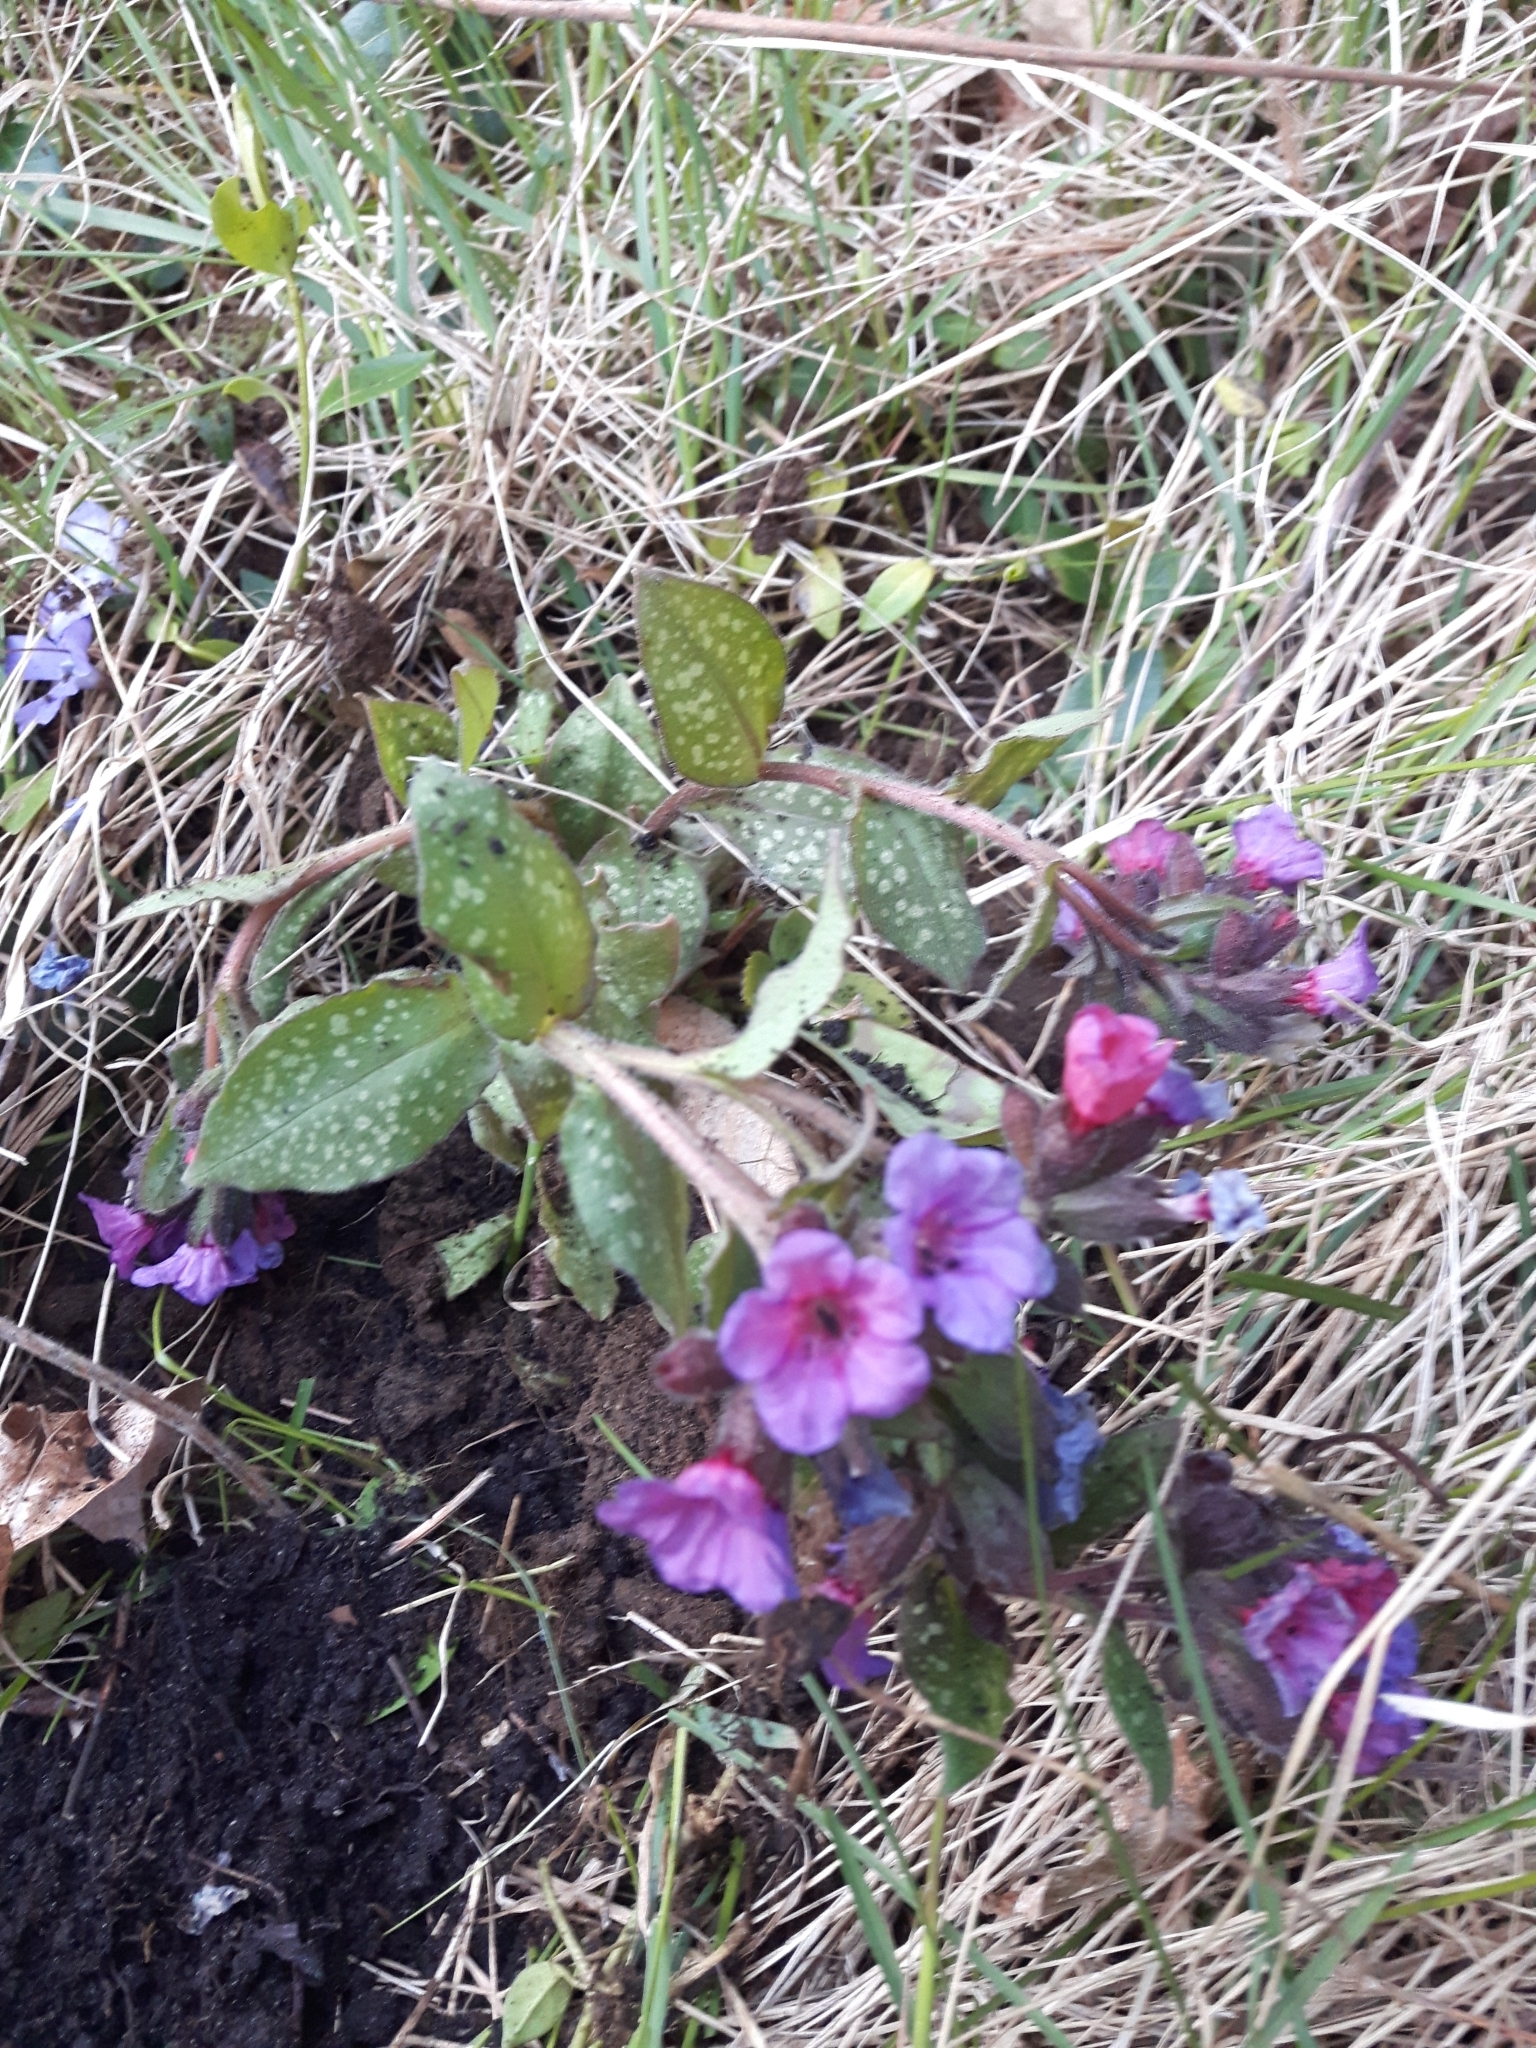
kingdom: Plantae
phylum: Tracheophyta
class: Magnoliopsida
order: Boraginales
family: Boraginaceae
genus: Pulmonaria
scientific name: Pulmonaria officinalis
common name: Lungwort
